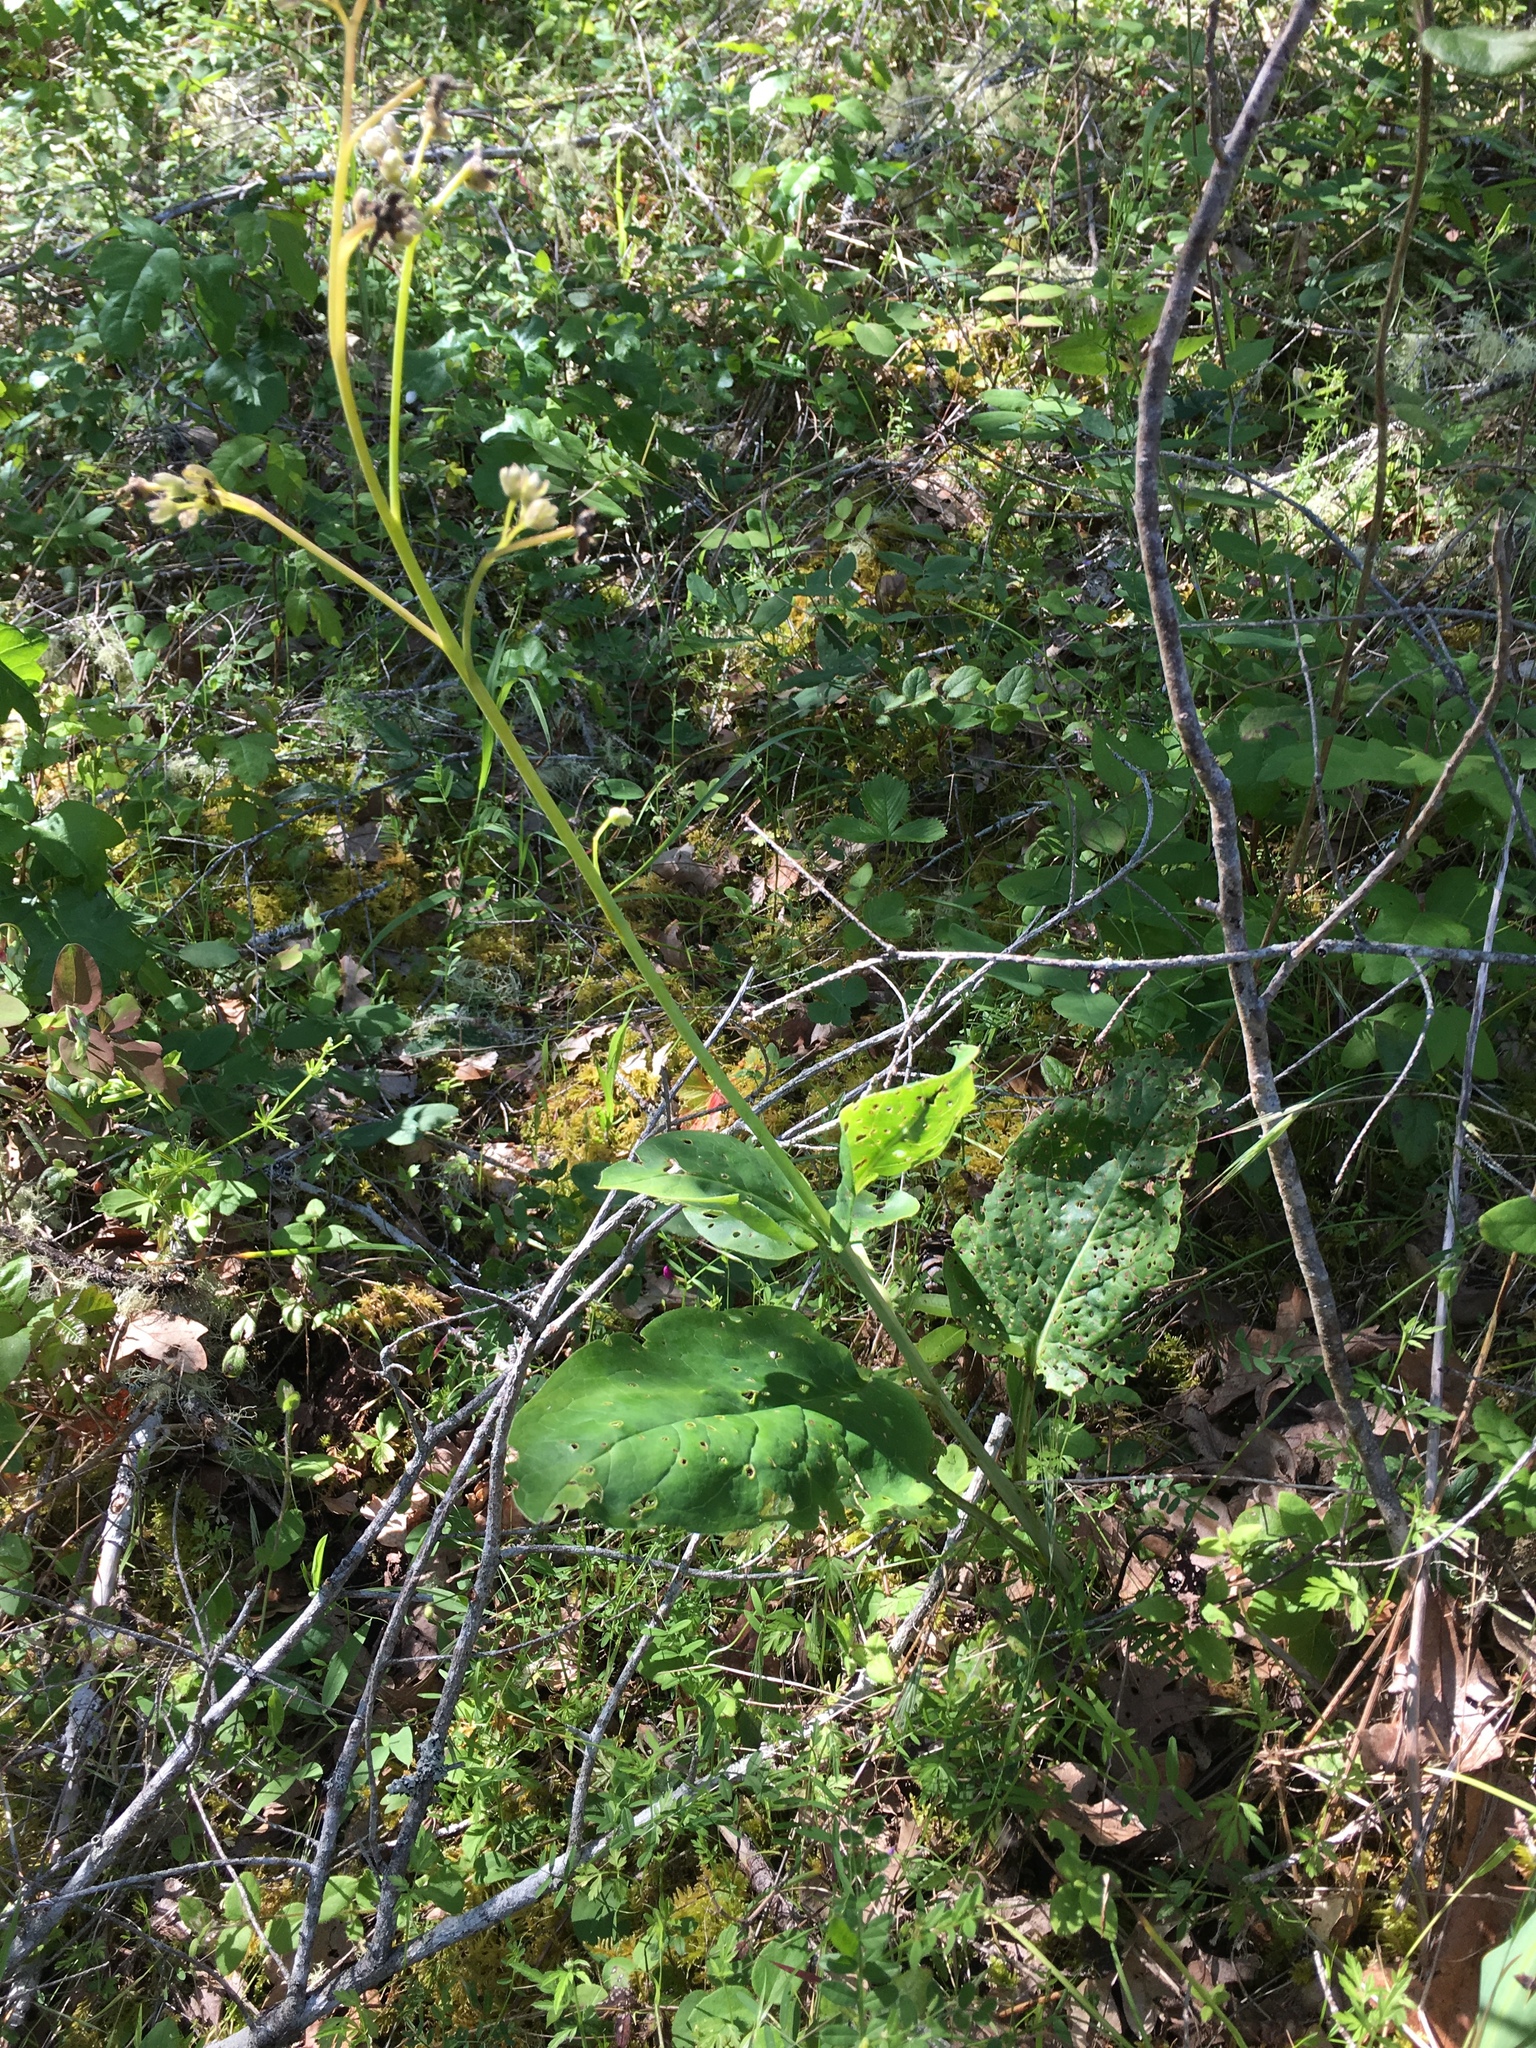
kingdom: Plantae
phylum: Tracheophyta
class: Magnoliopsida
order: Boraginales
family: Boraginaceae
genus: Adelinia
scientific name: Adelinia grande
